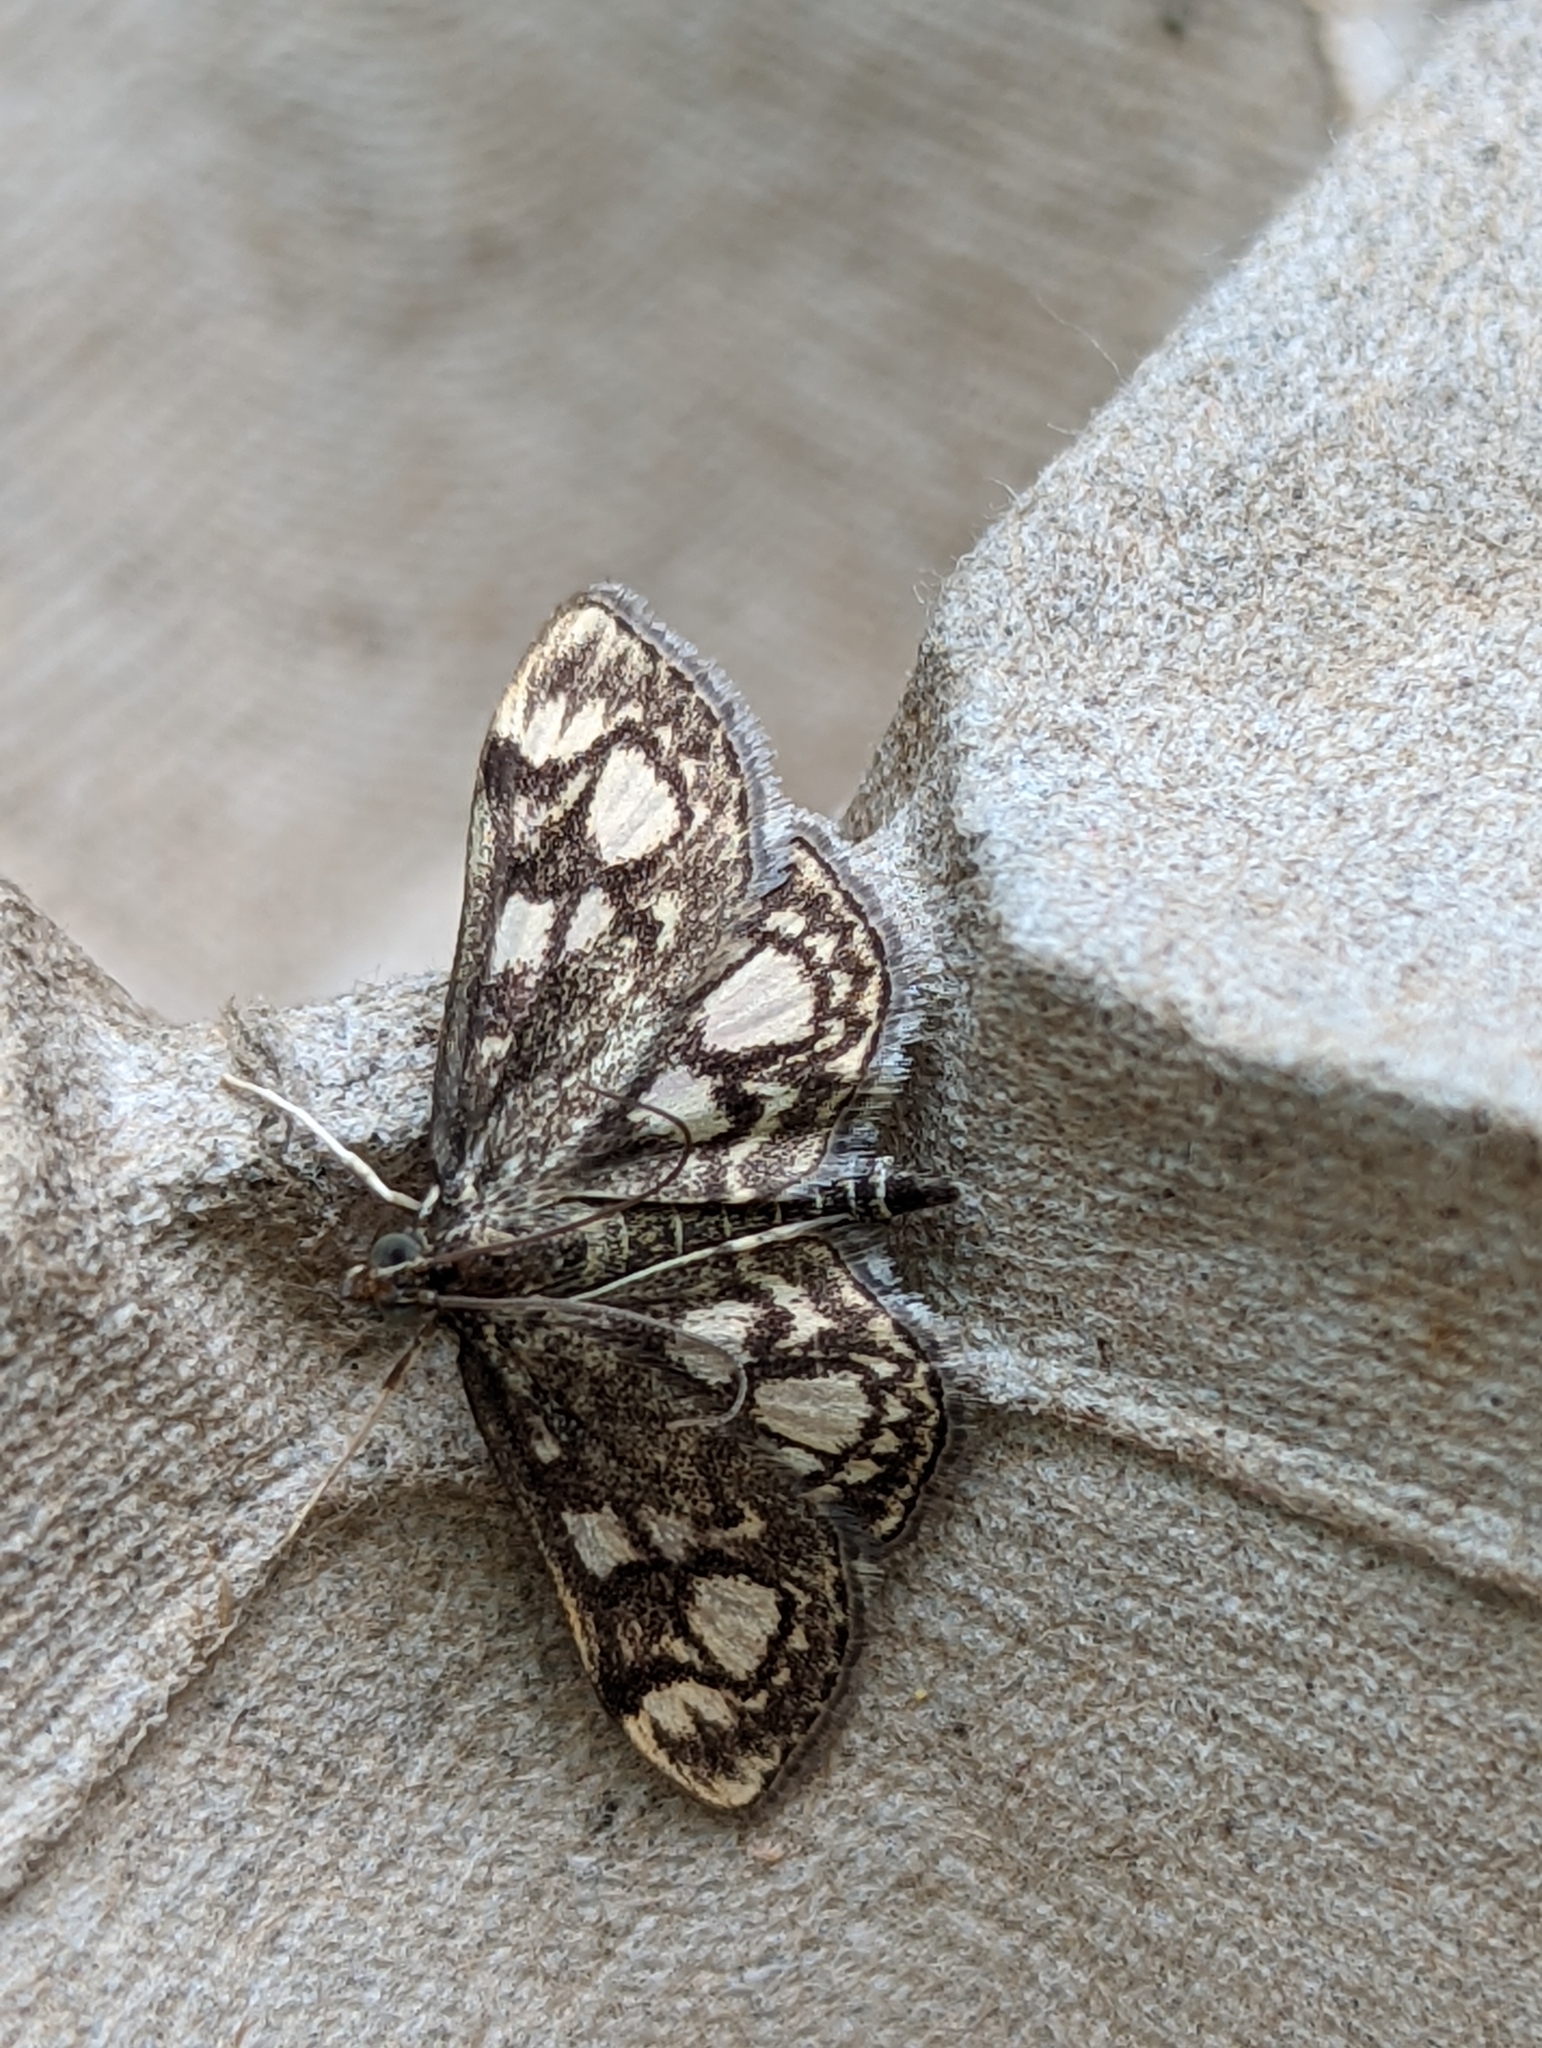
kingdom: Animalia
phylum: Arthropoda
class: Insecta
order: Lepidoptera
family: Crambidae
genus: Anania
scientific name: Anania coronata
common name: Elder pearl
